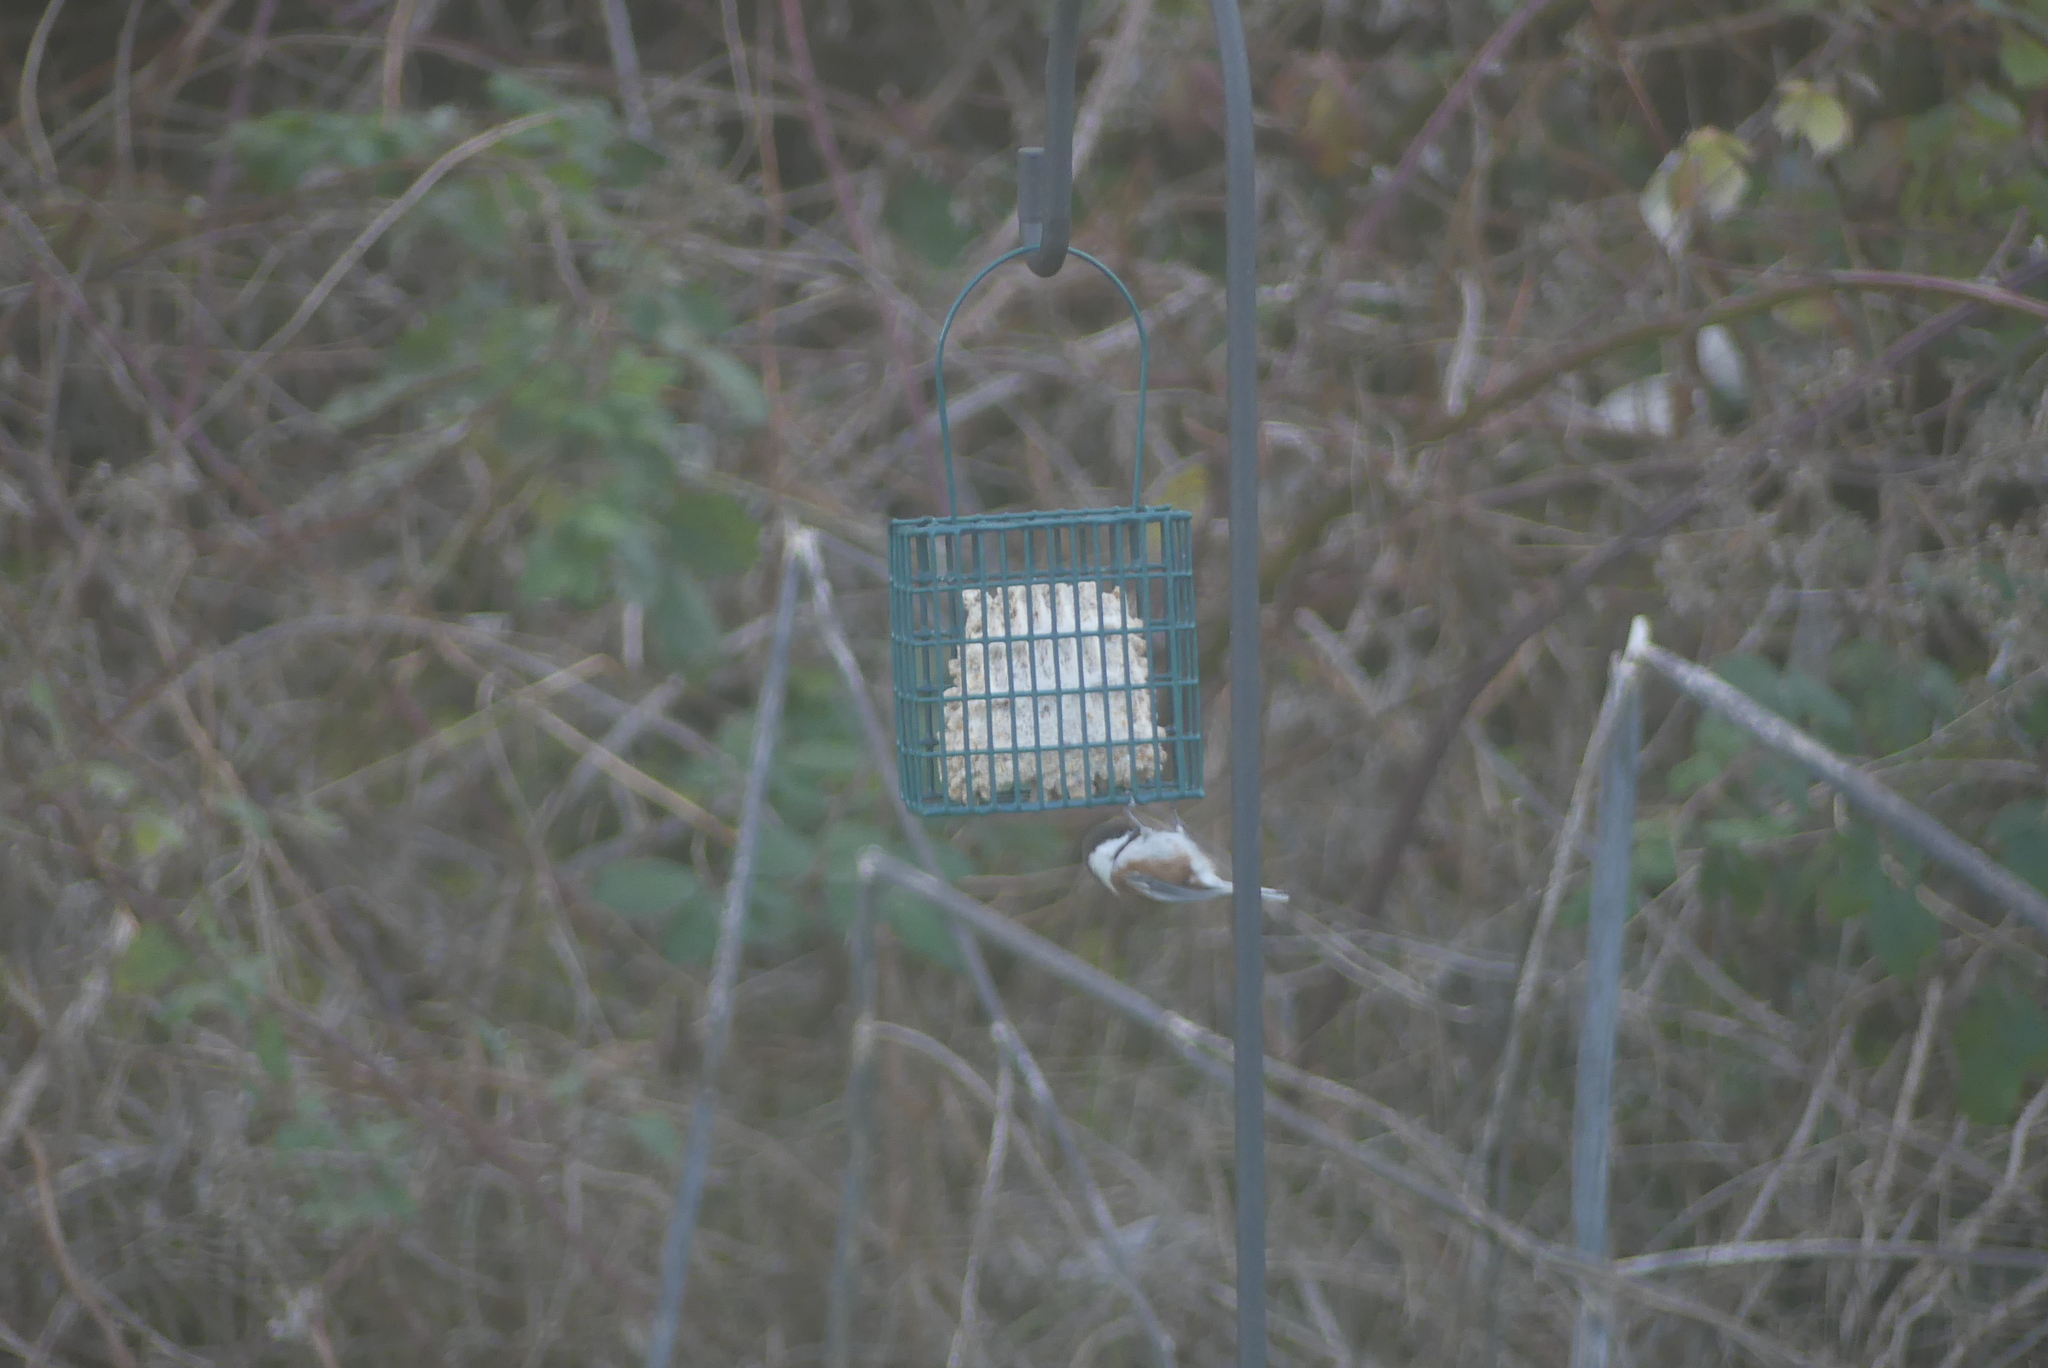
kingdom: Animalia
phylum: Chordata
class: Aves
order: Passeriformes
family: Paridae
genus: Poecile
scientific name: Poecile rufescens
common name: Chestnut-backed chickadee
